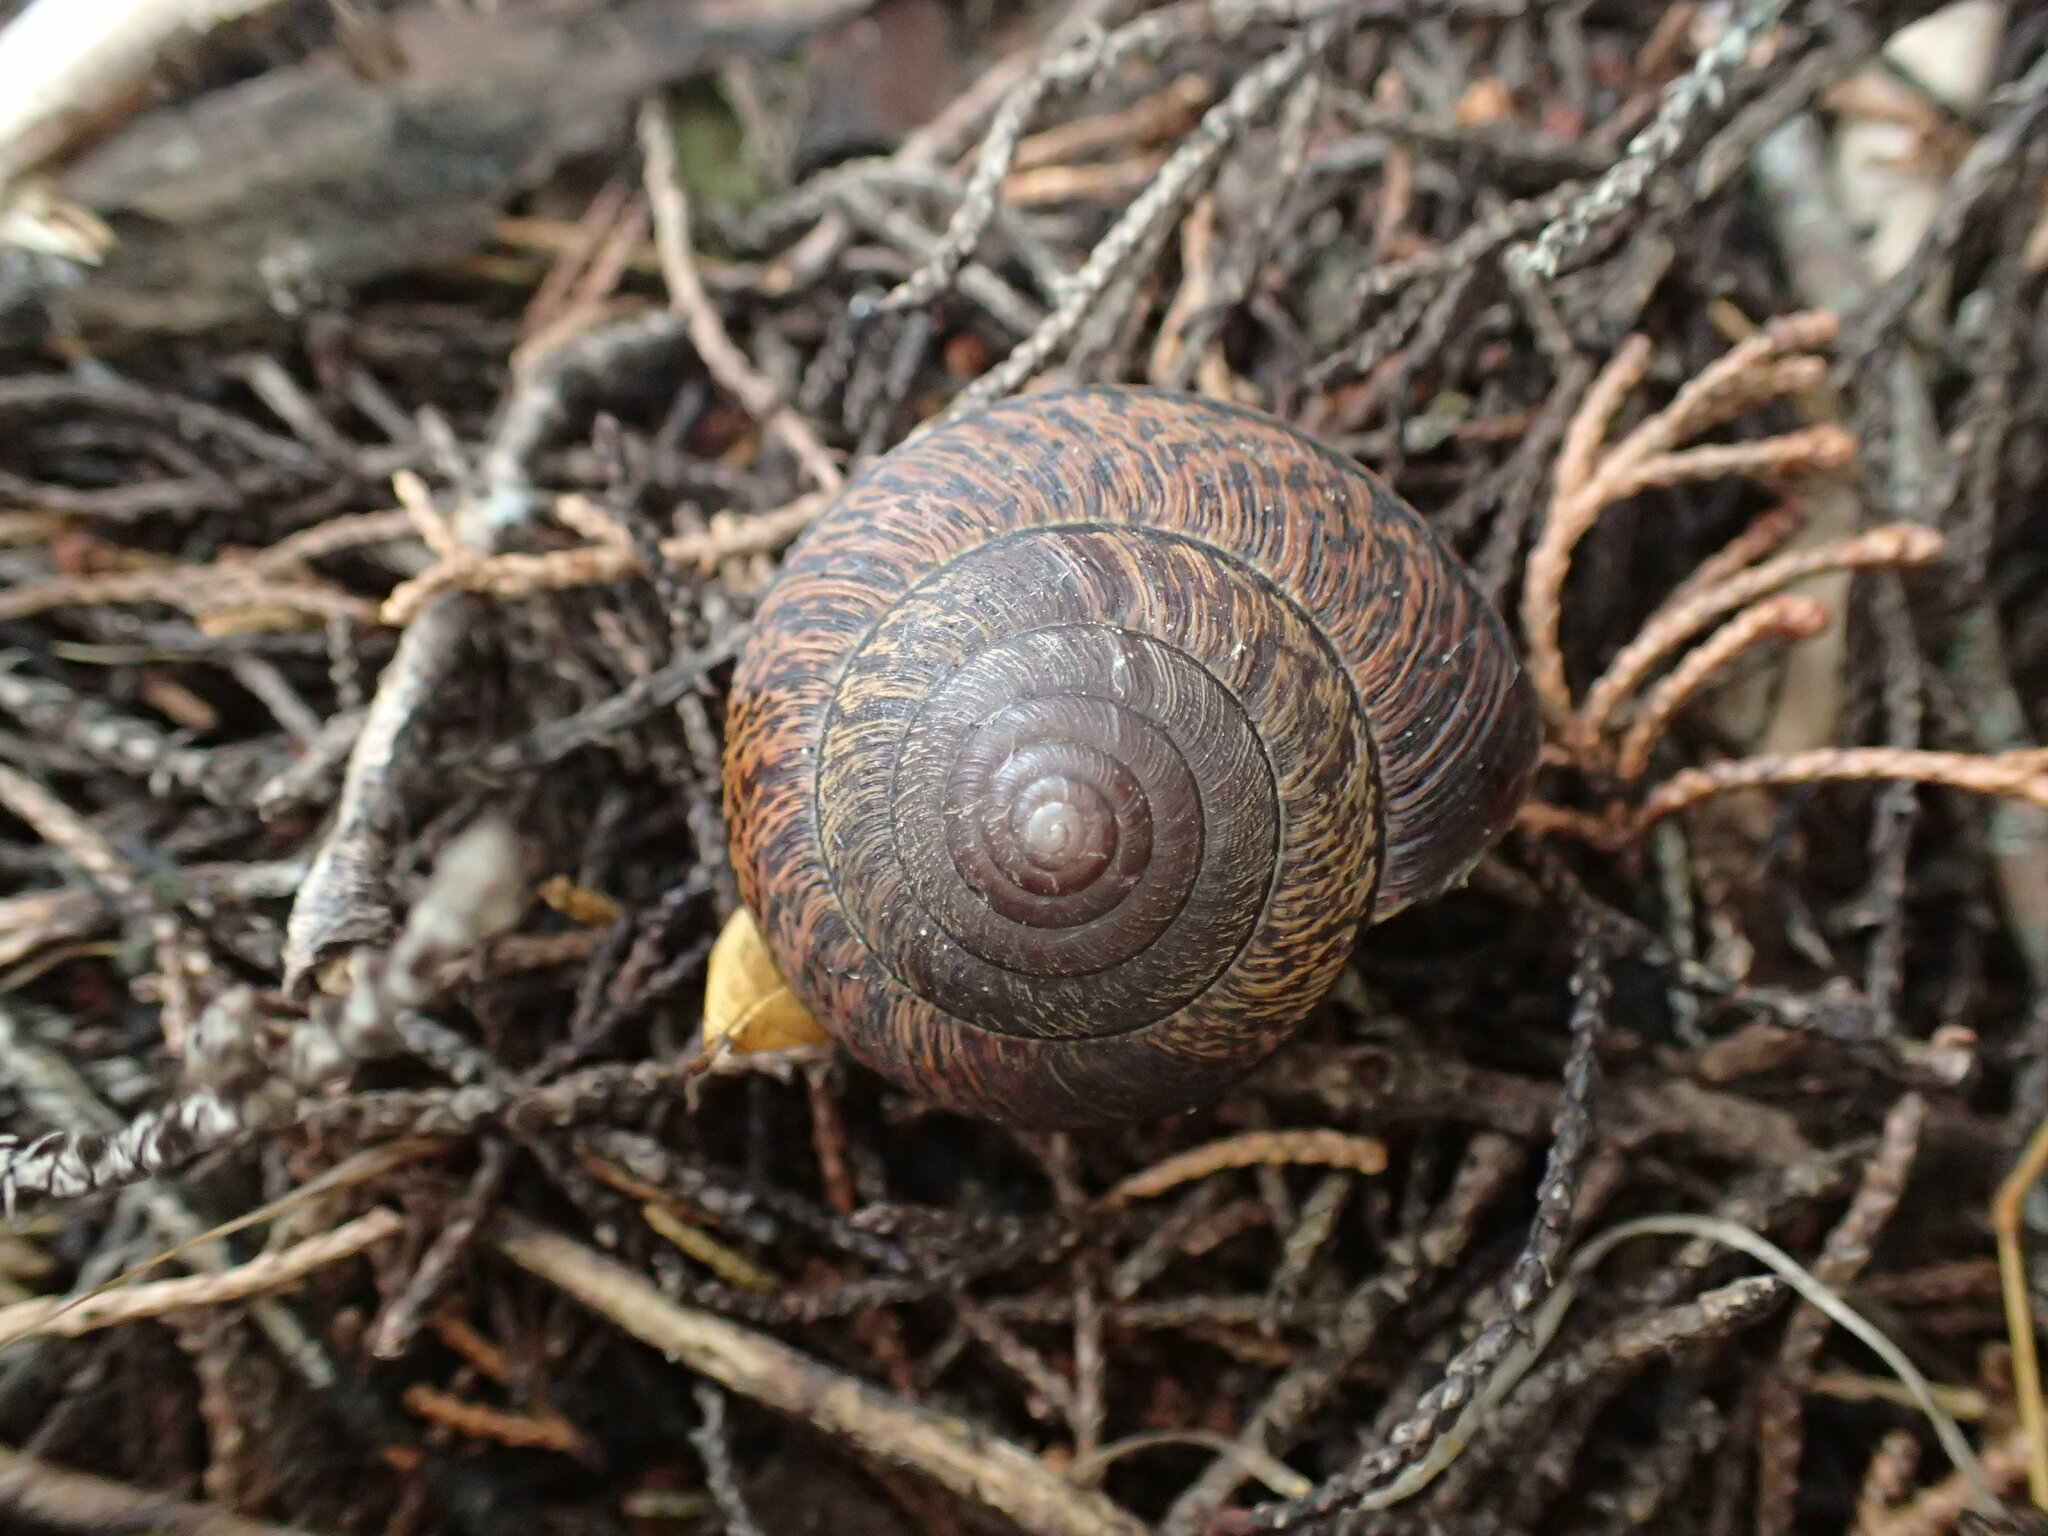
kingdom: Animalia
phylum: Mollusca
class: Gastropoda
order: Stylommatophora
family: Xanthonychidae
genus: Helminthoglypta
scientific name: Helminthoglypta arrosa
